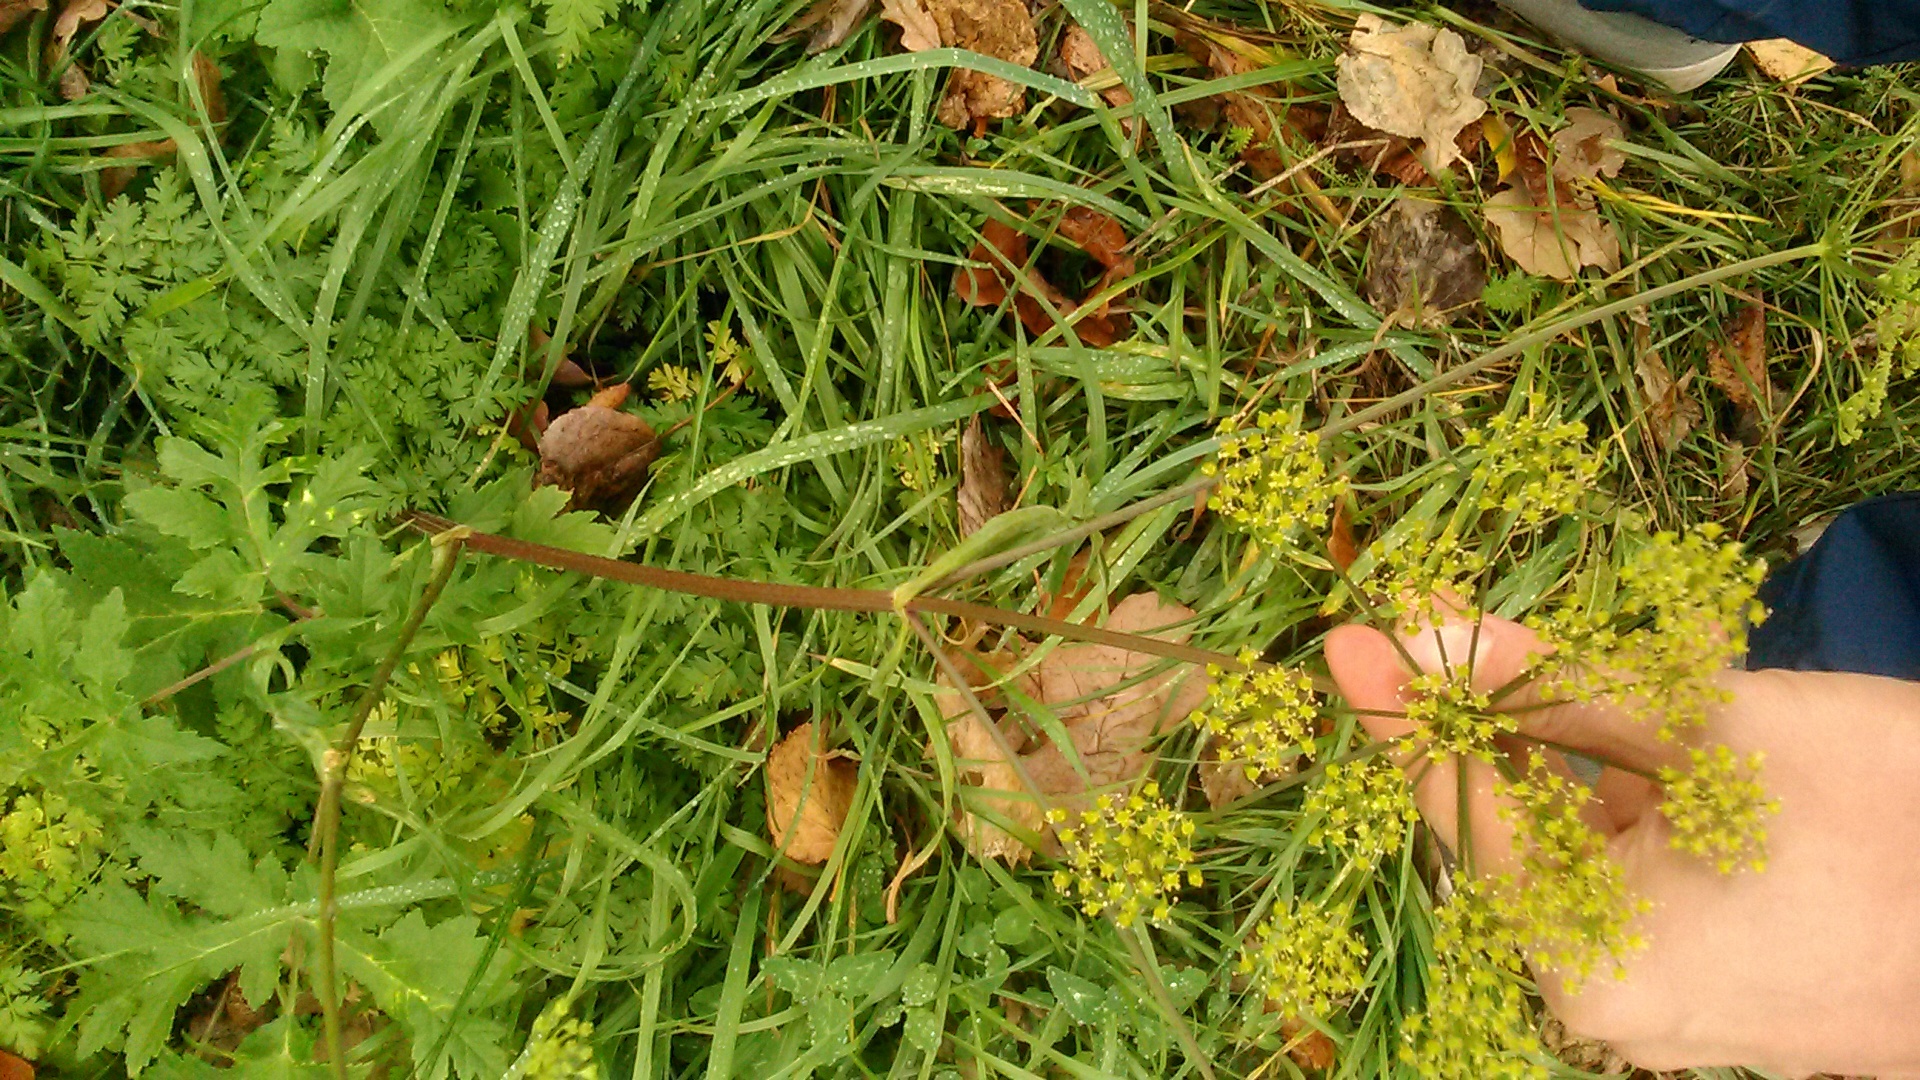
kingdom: Plantae
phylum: Tracheophyta
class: Magnoliopsida
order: Apiales
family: Apiaceae
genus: Heracleum
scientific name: Heracleum sphondylium
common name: Hogweed
